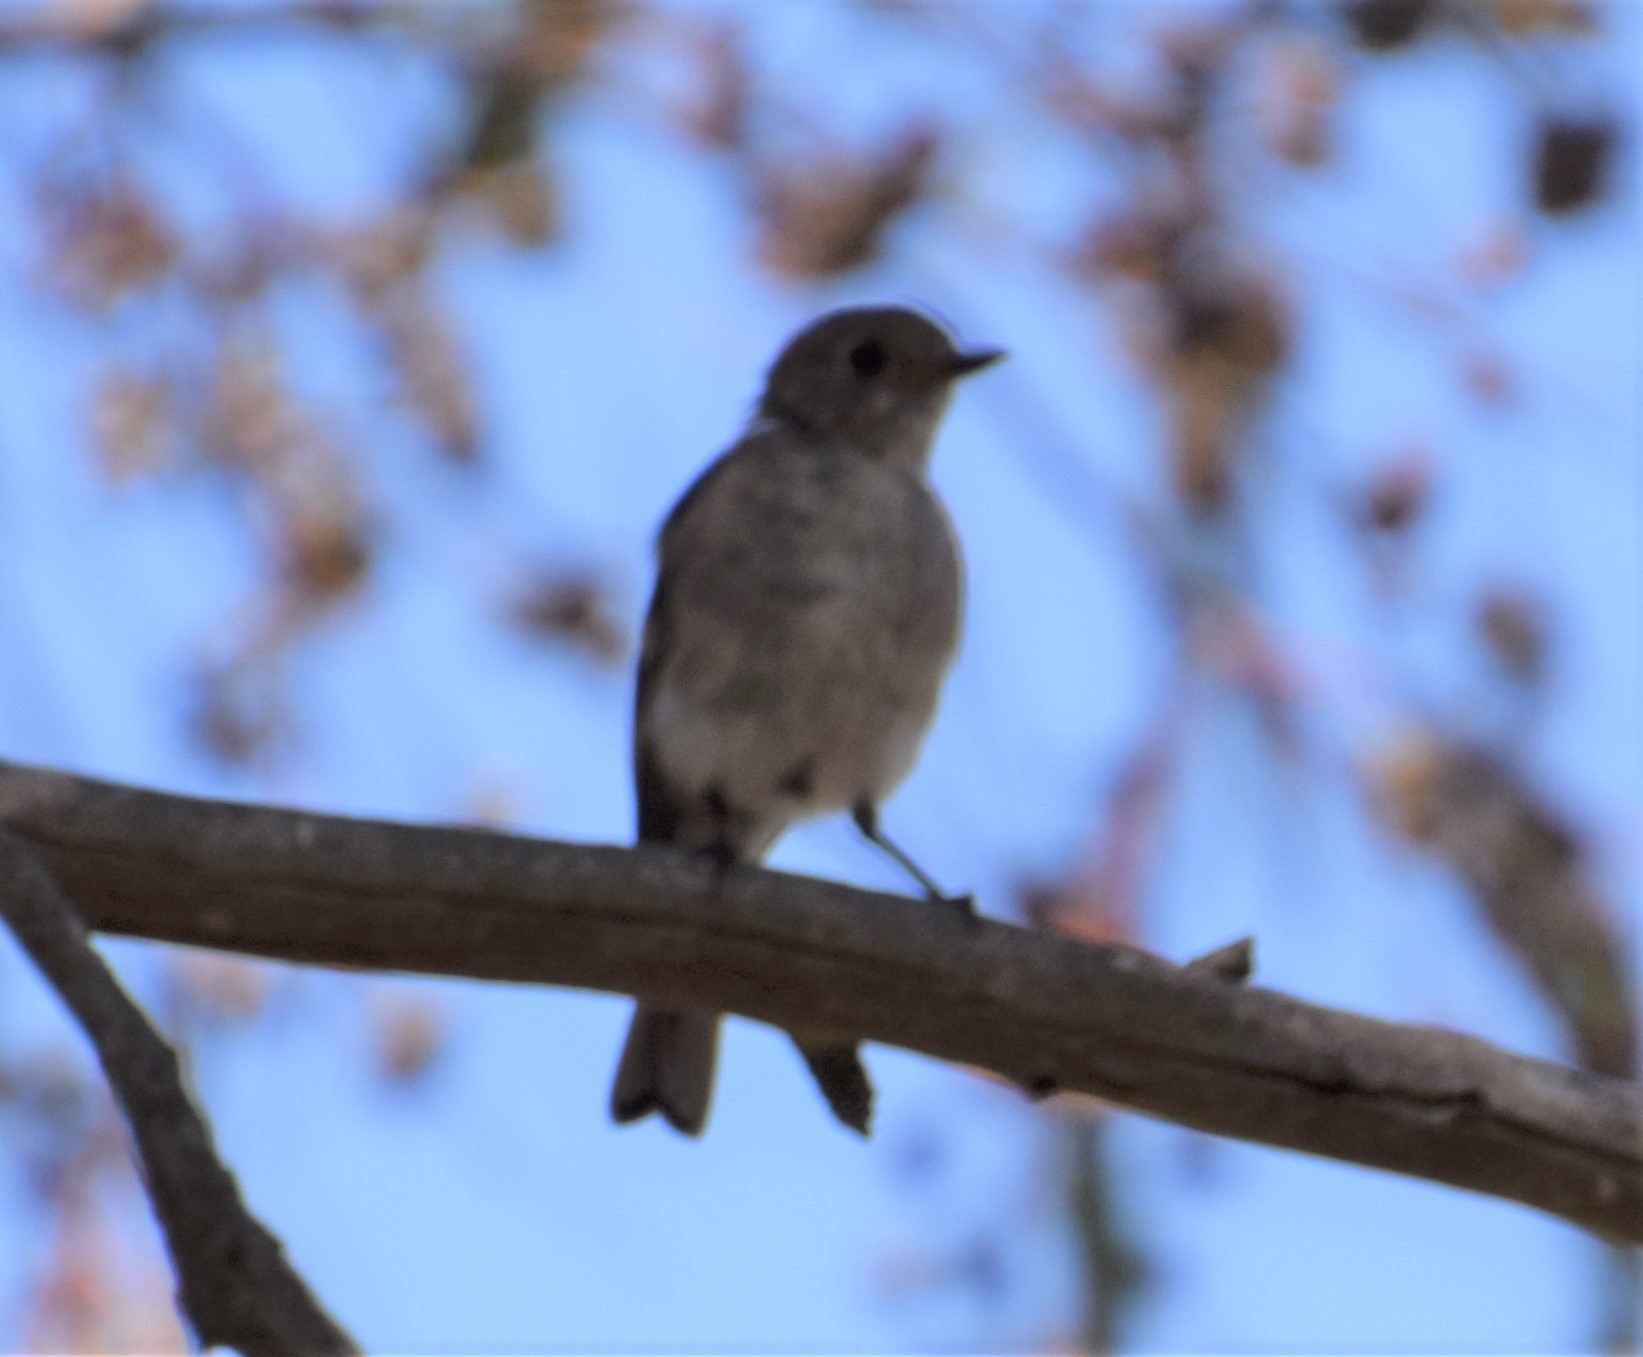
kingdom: Animalia
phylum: Chordata
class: Aves
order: Passeriformes
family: Petroicidae
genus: Eopsaltria
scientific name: Eopsaltria georgiana
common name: White-breasted robin
